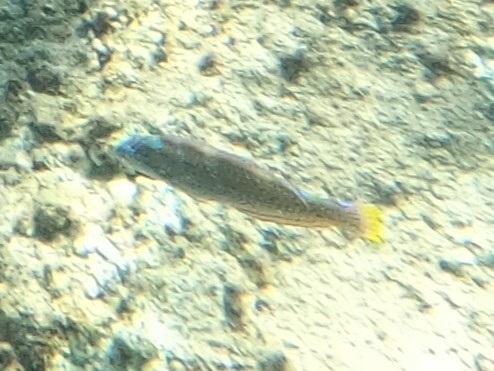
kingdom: Animalia
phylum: Chordata
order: Perciformes
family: Labridae
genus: Halichoeres
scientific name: Halichoeres radiatus
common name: Puddingwife
